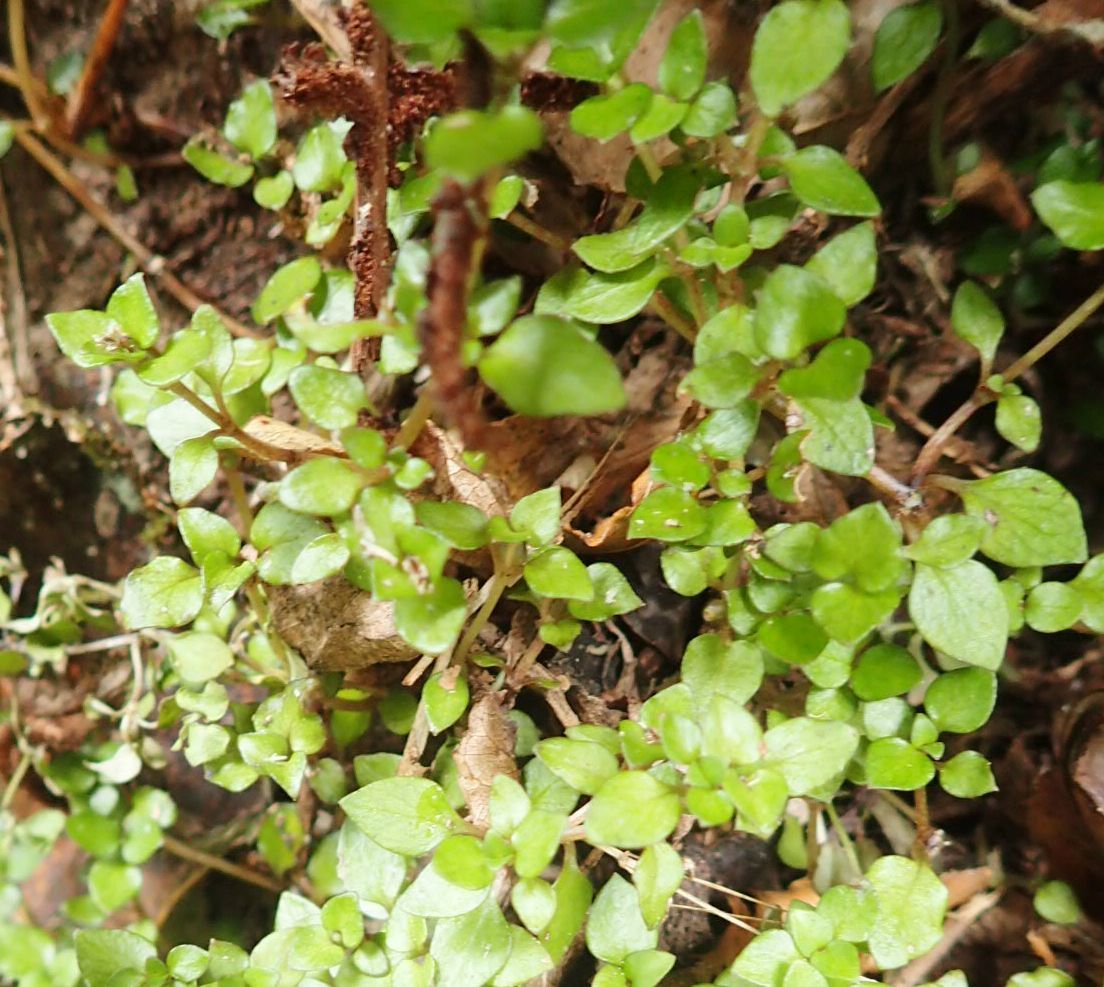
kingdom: Plantae
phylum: Tracheophyta
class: Magnoliopsida
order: Gentianales
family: Rubiaceae
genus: Nertera
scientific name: Nertera granadensis
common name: Beadplant
